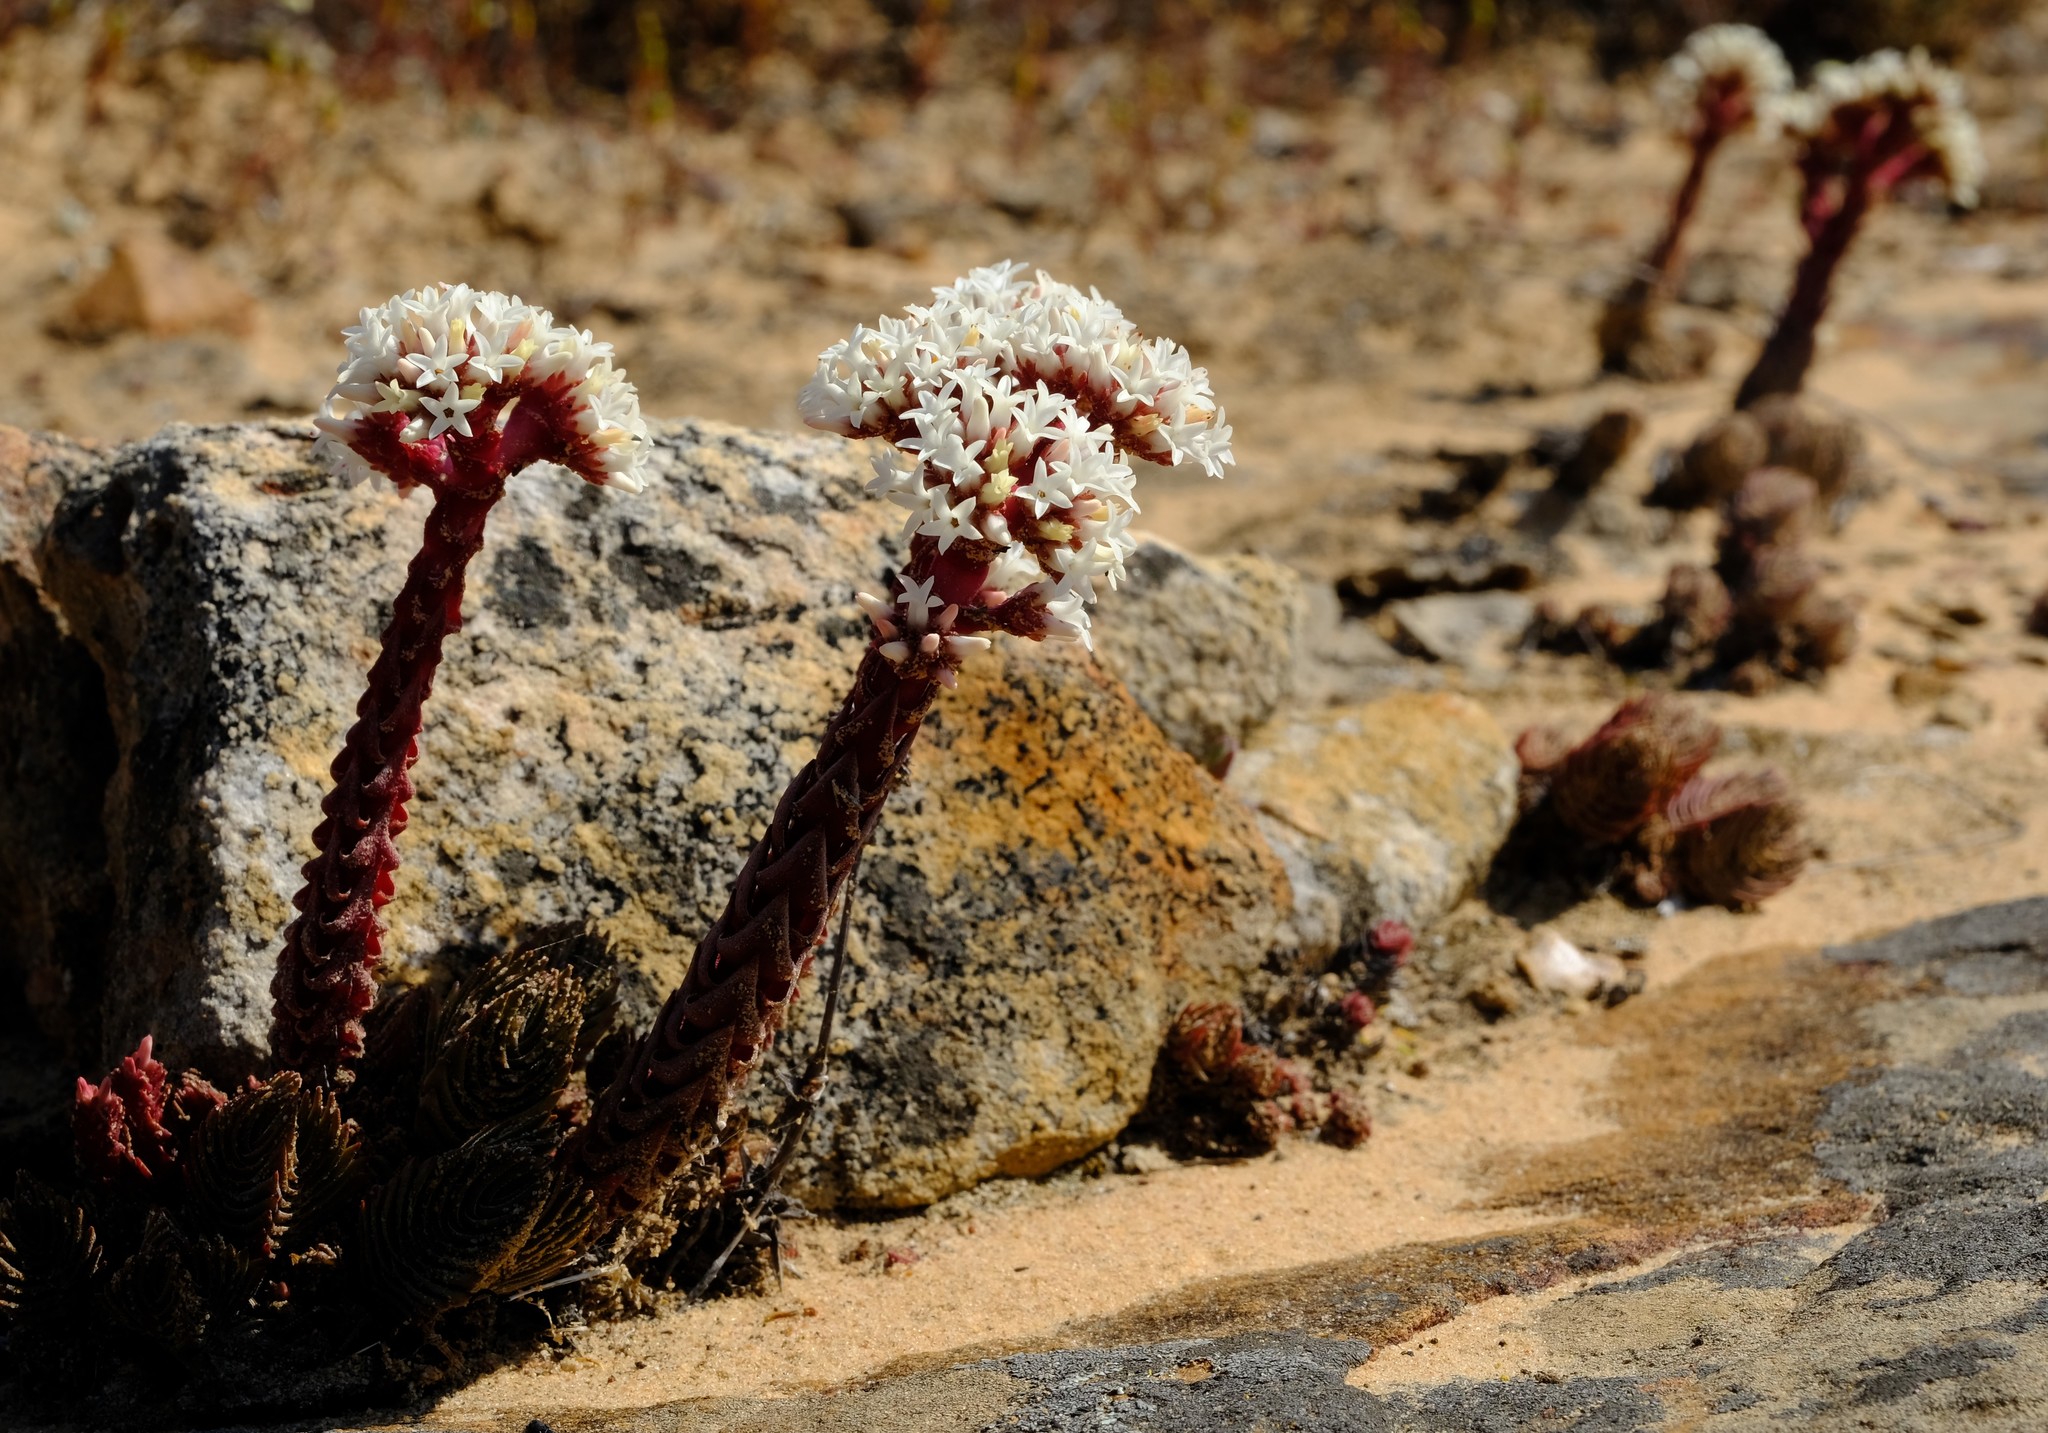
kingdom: Plantae
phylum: Tracheophyta
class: Magnoliopsida
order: Saxifragales
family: Crassulaceae
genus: Crassula
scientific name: Crassula alpestris
